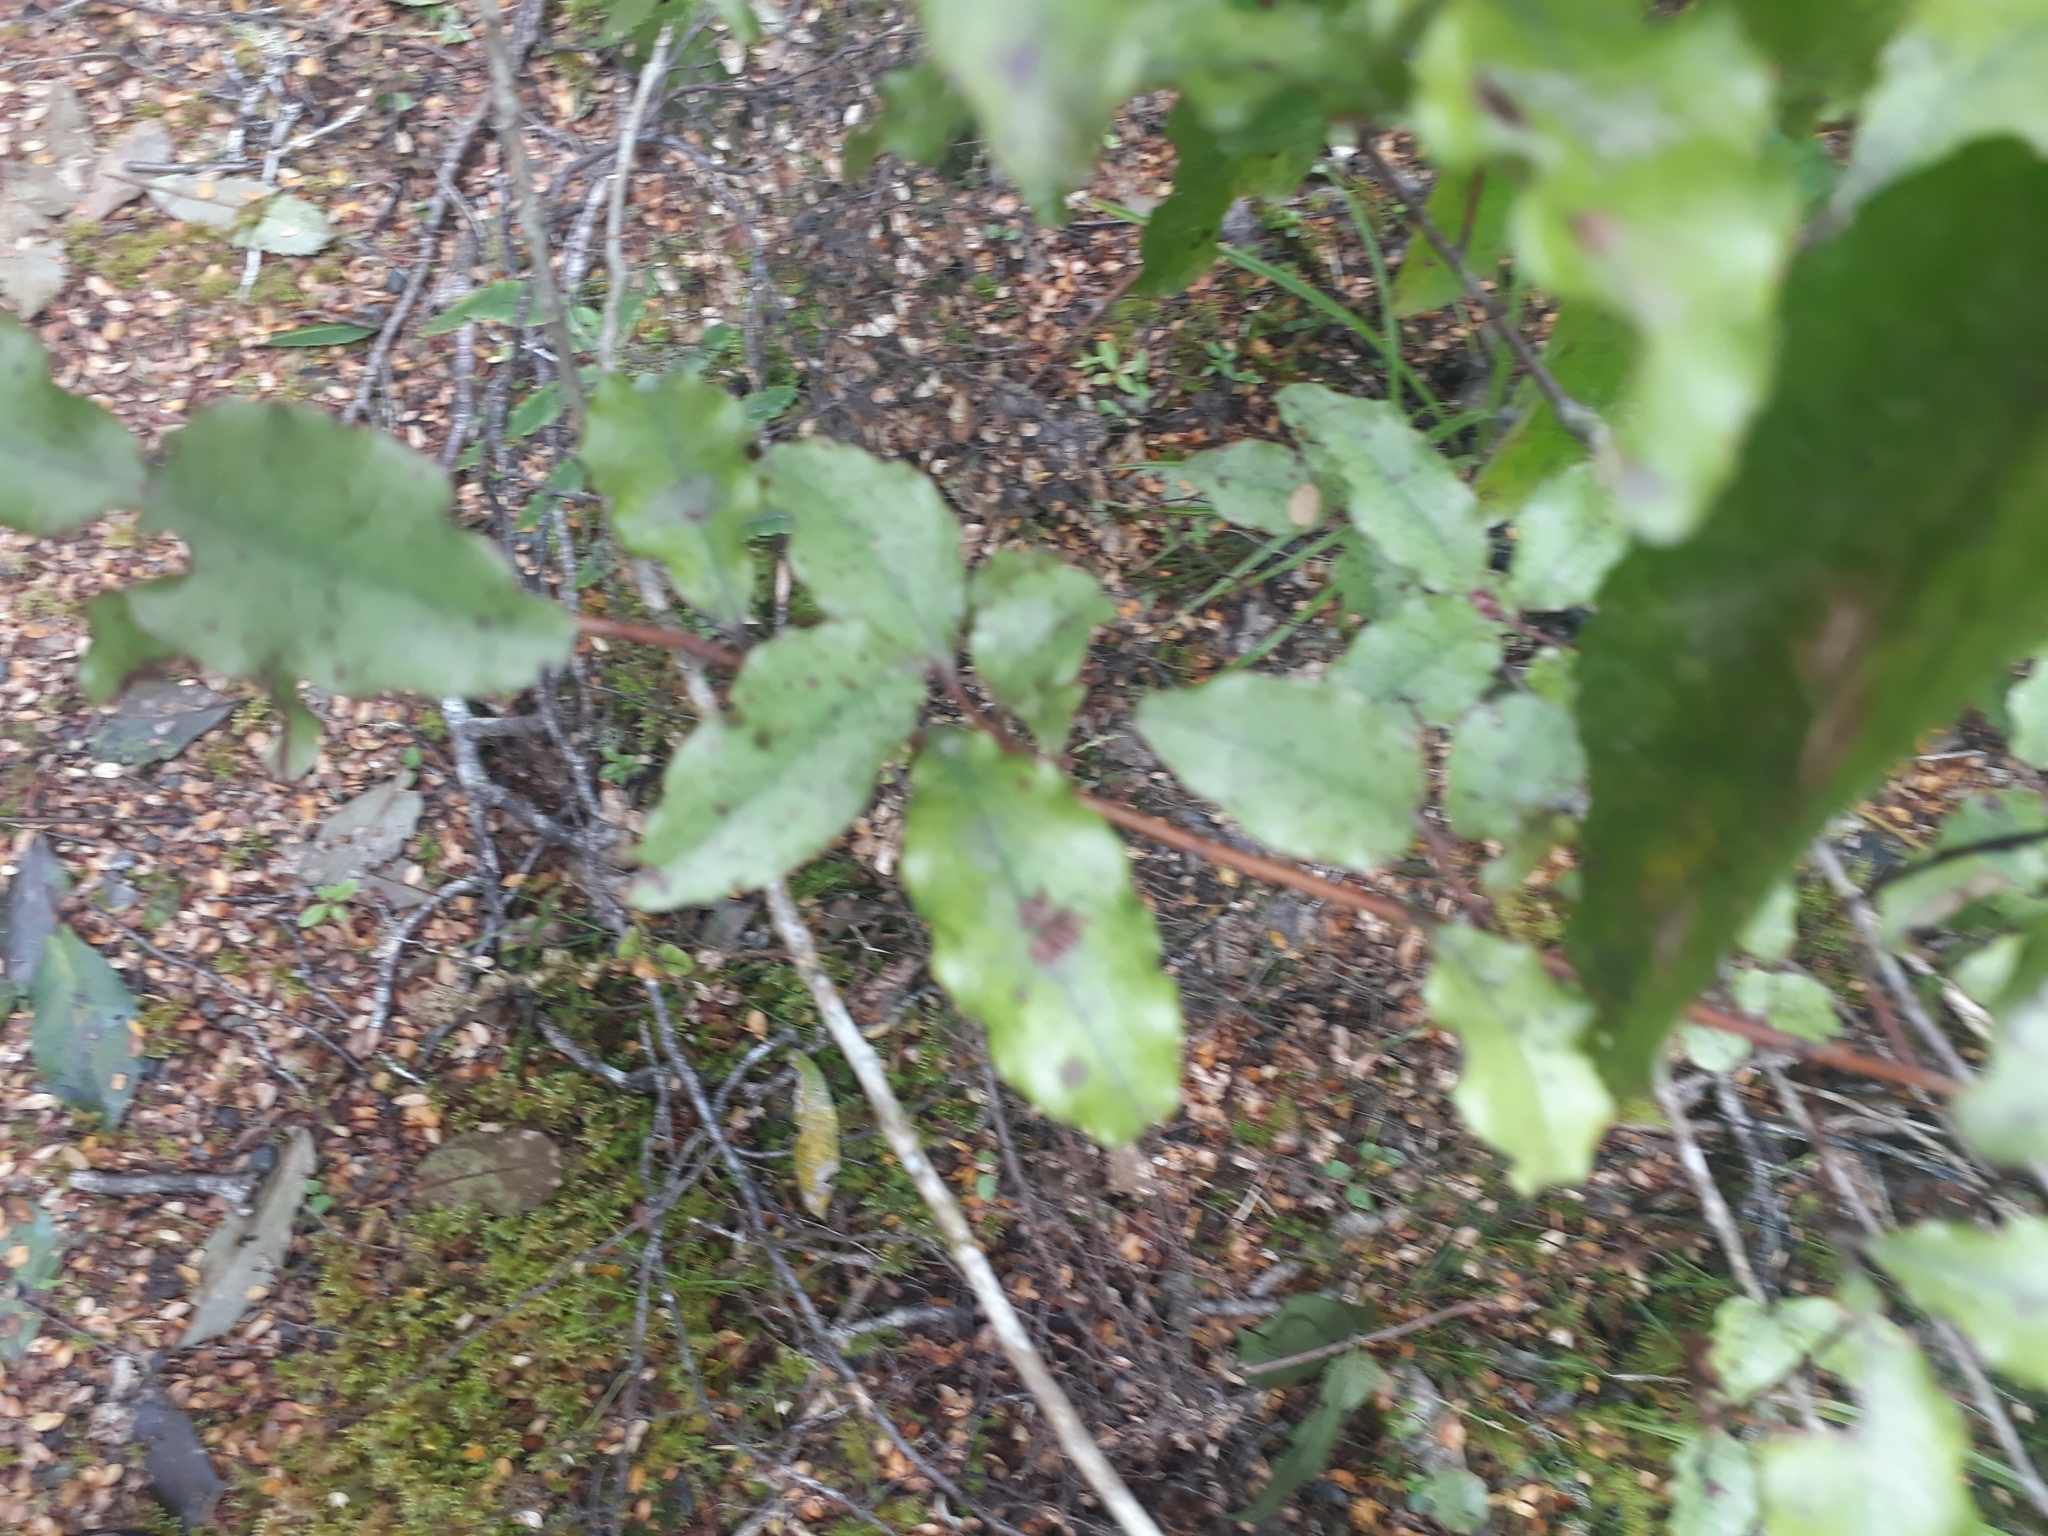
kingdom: Plantae
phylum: Tracheophyta
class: Magnoliopsida
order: Ericales
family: Primulaceae
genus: Myrsine
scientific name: Myrsine australis
